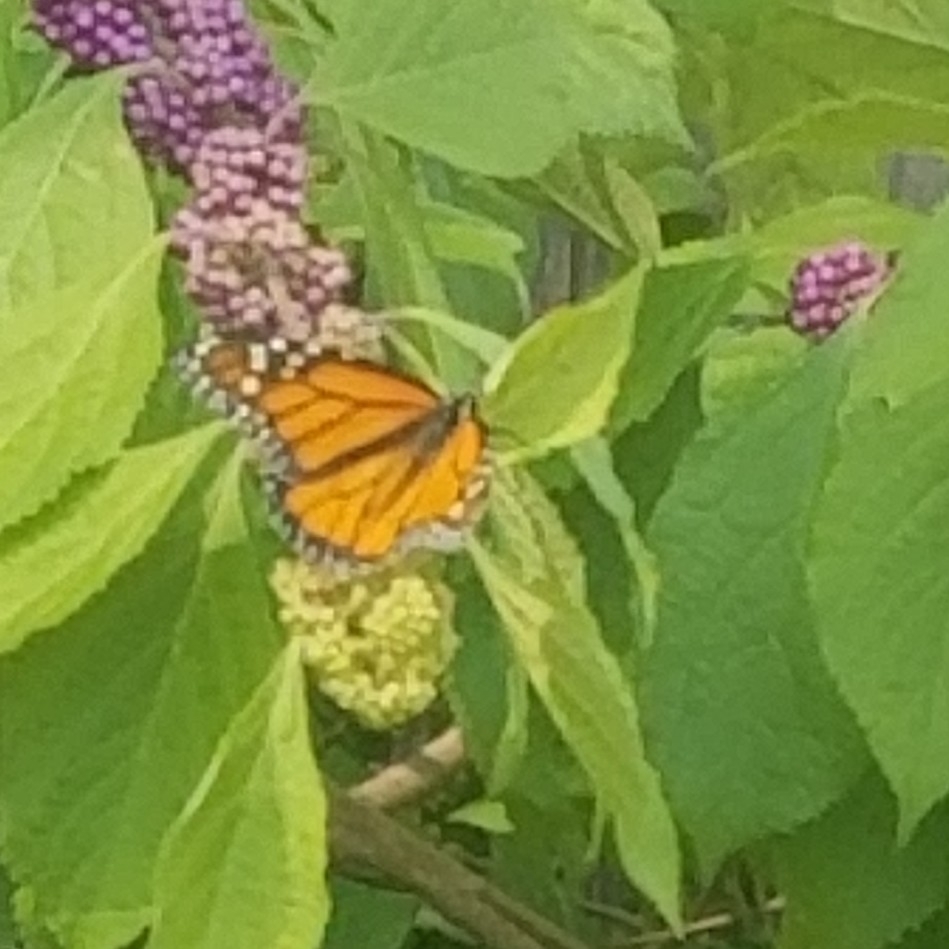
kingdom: Animalia
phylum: Arthropoda
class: Insecta
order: Lepidoptera
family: Nymphalidae
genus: Danaus
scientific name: Danaus plexippus
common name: Monarch
